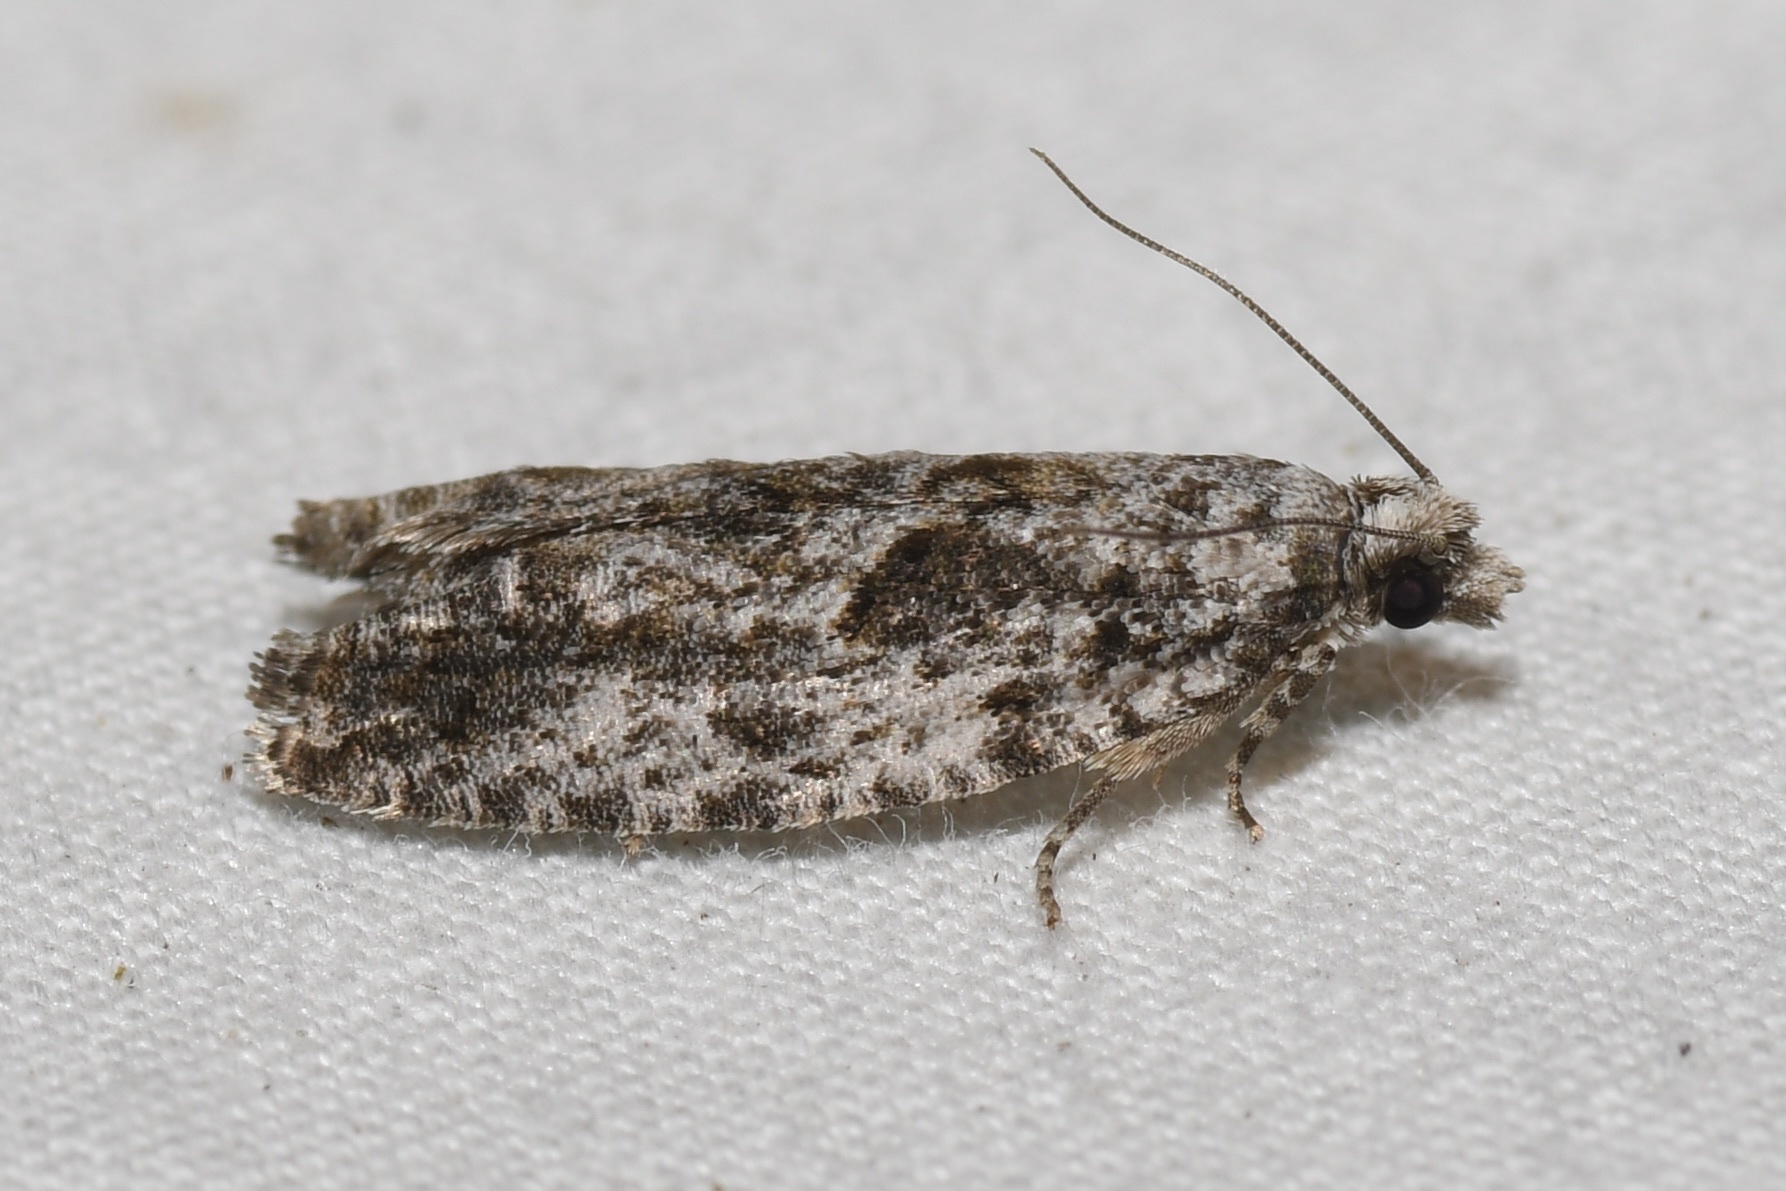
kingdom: Animalia
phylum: Arthropoda
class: Insecta
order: Lepidoptera
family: Tortricidae
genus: Epinotia
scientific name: Epinotia nonana
